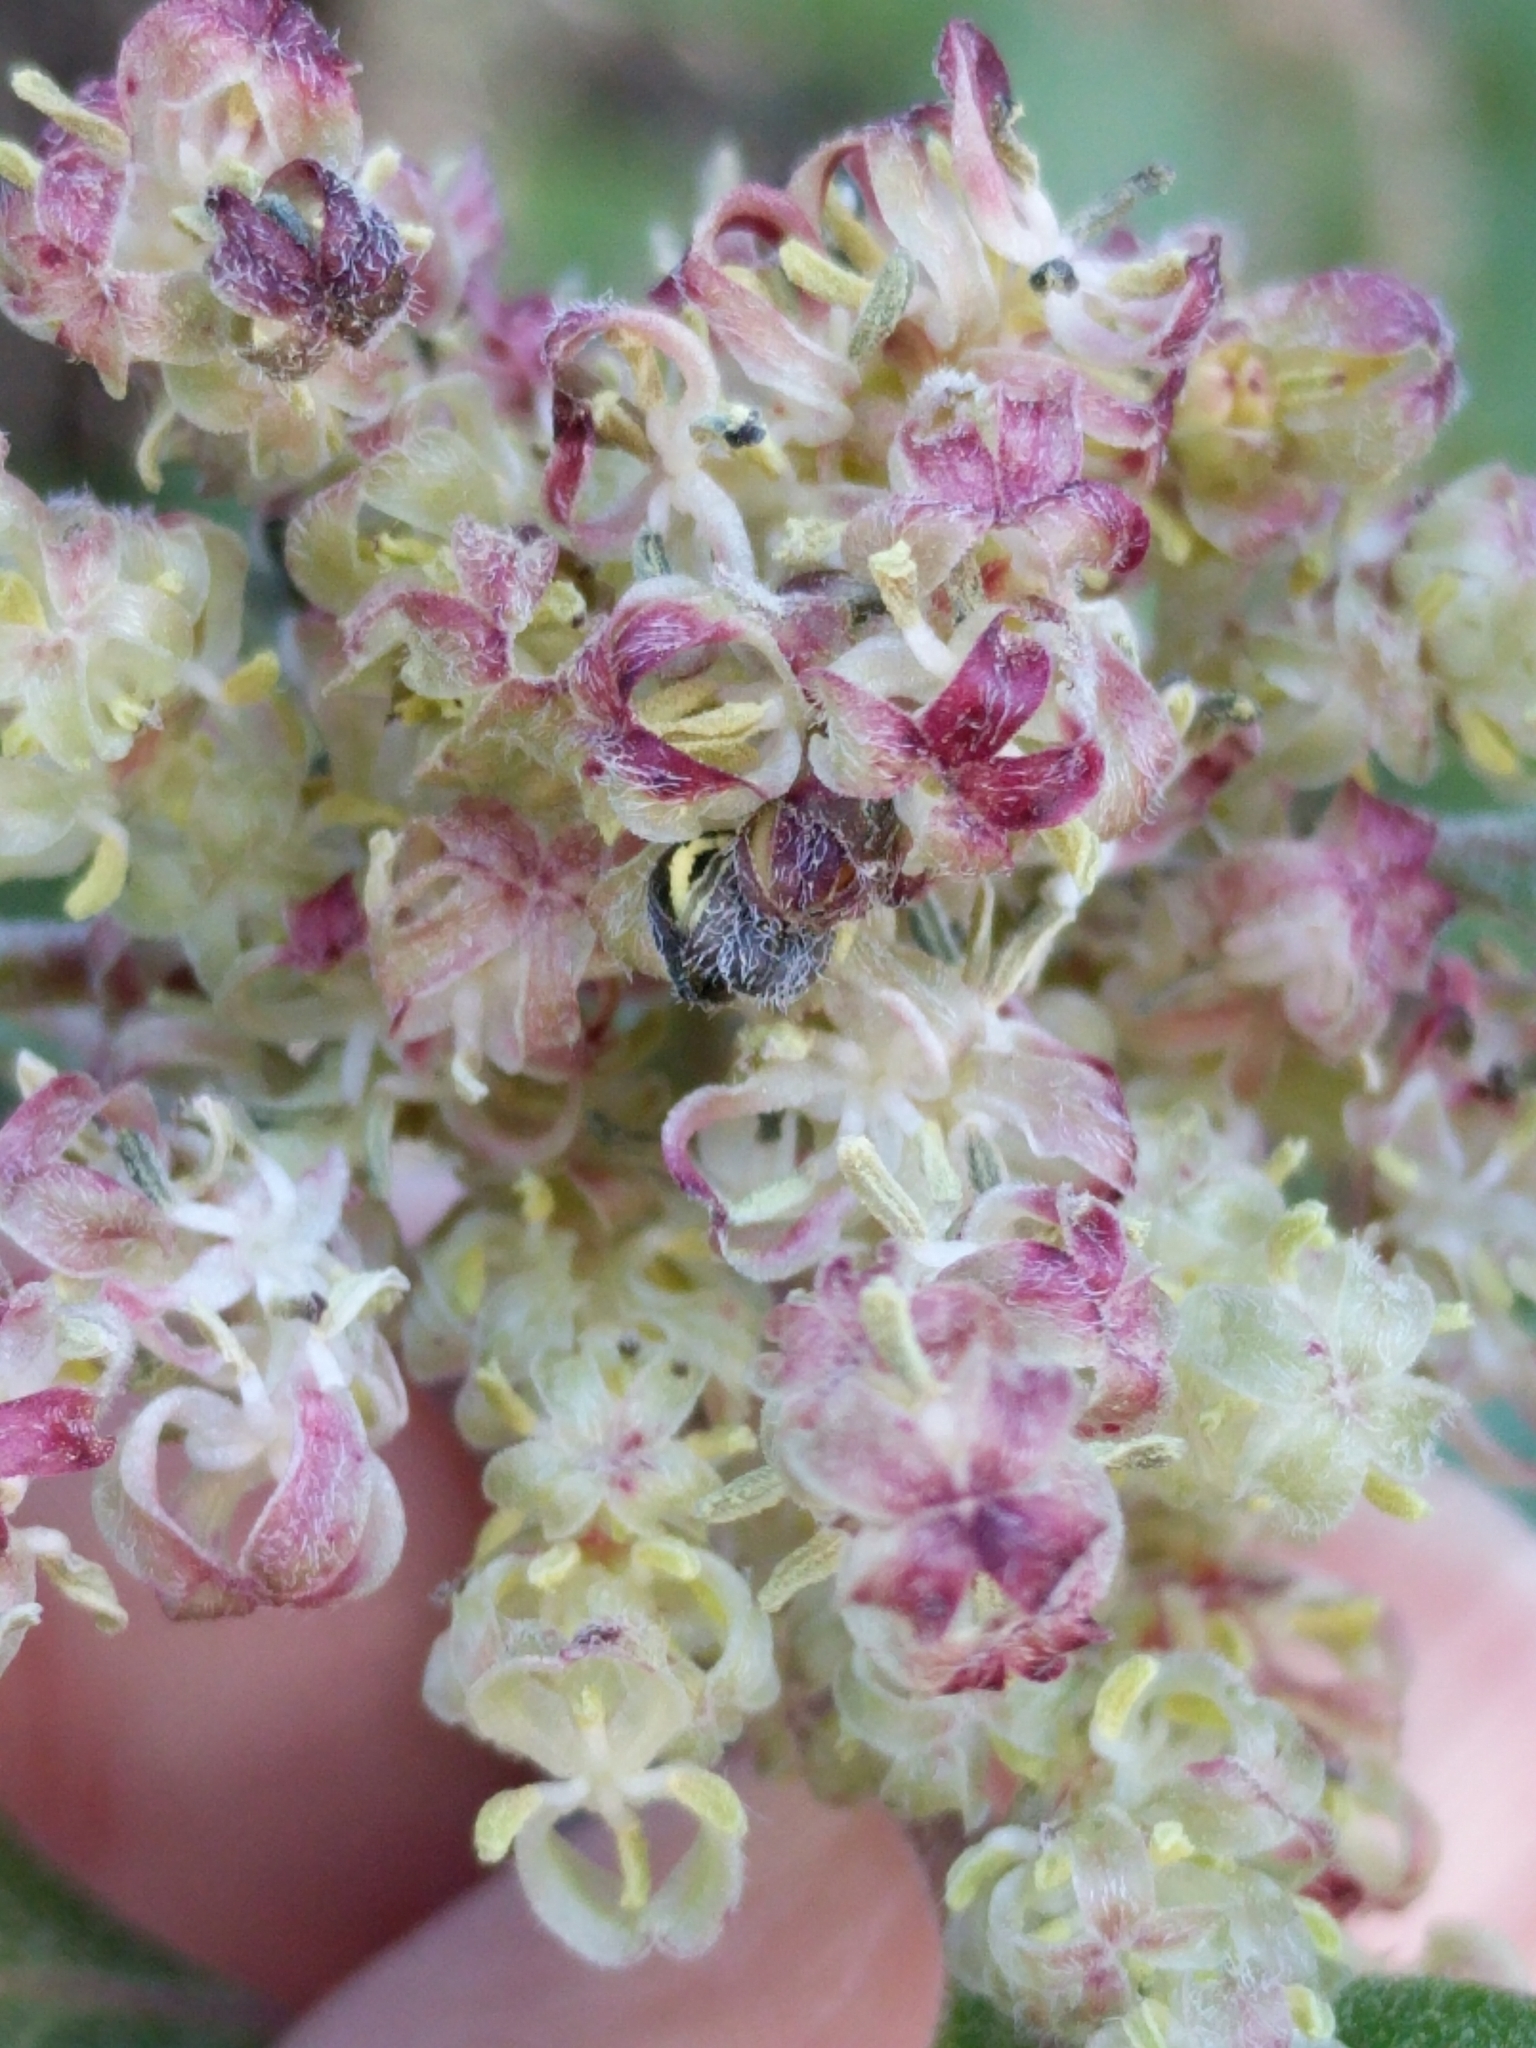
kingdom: Plantae
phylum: Tracheophyta
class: Magnoliopsida
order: Garryales
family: Garryaceae
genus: Garrya
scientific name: Garrya lindheimeri
